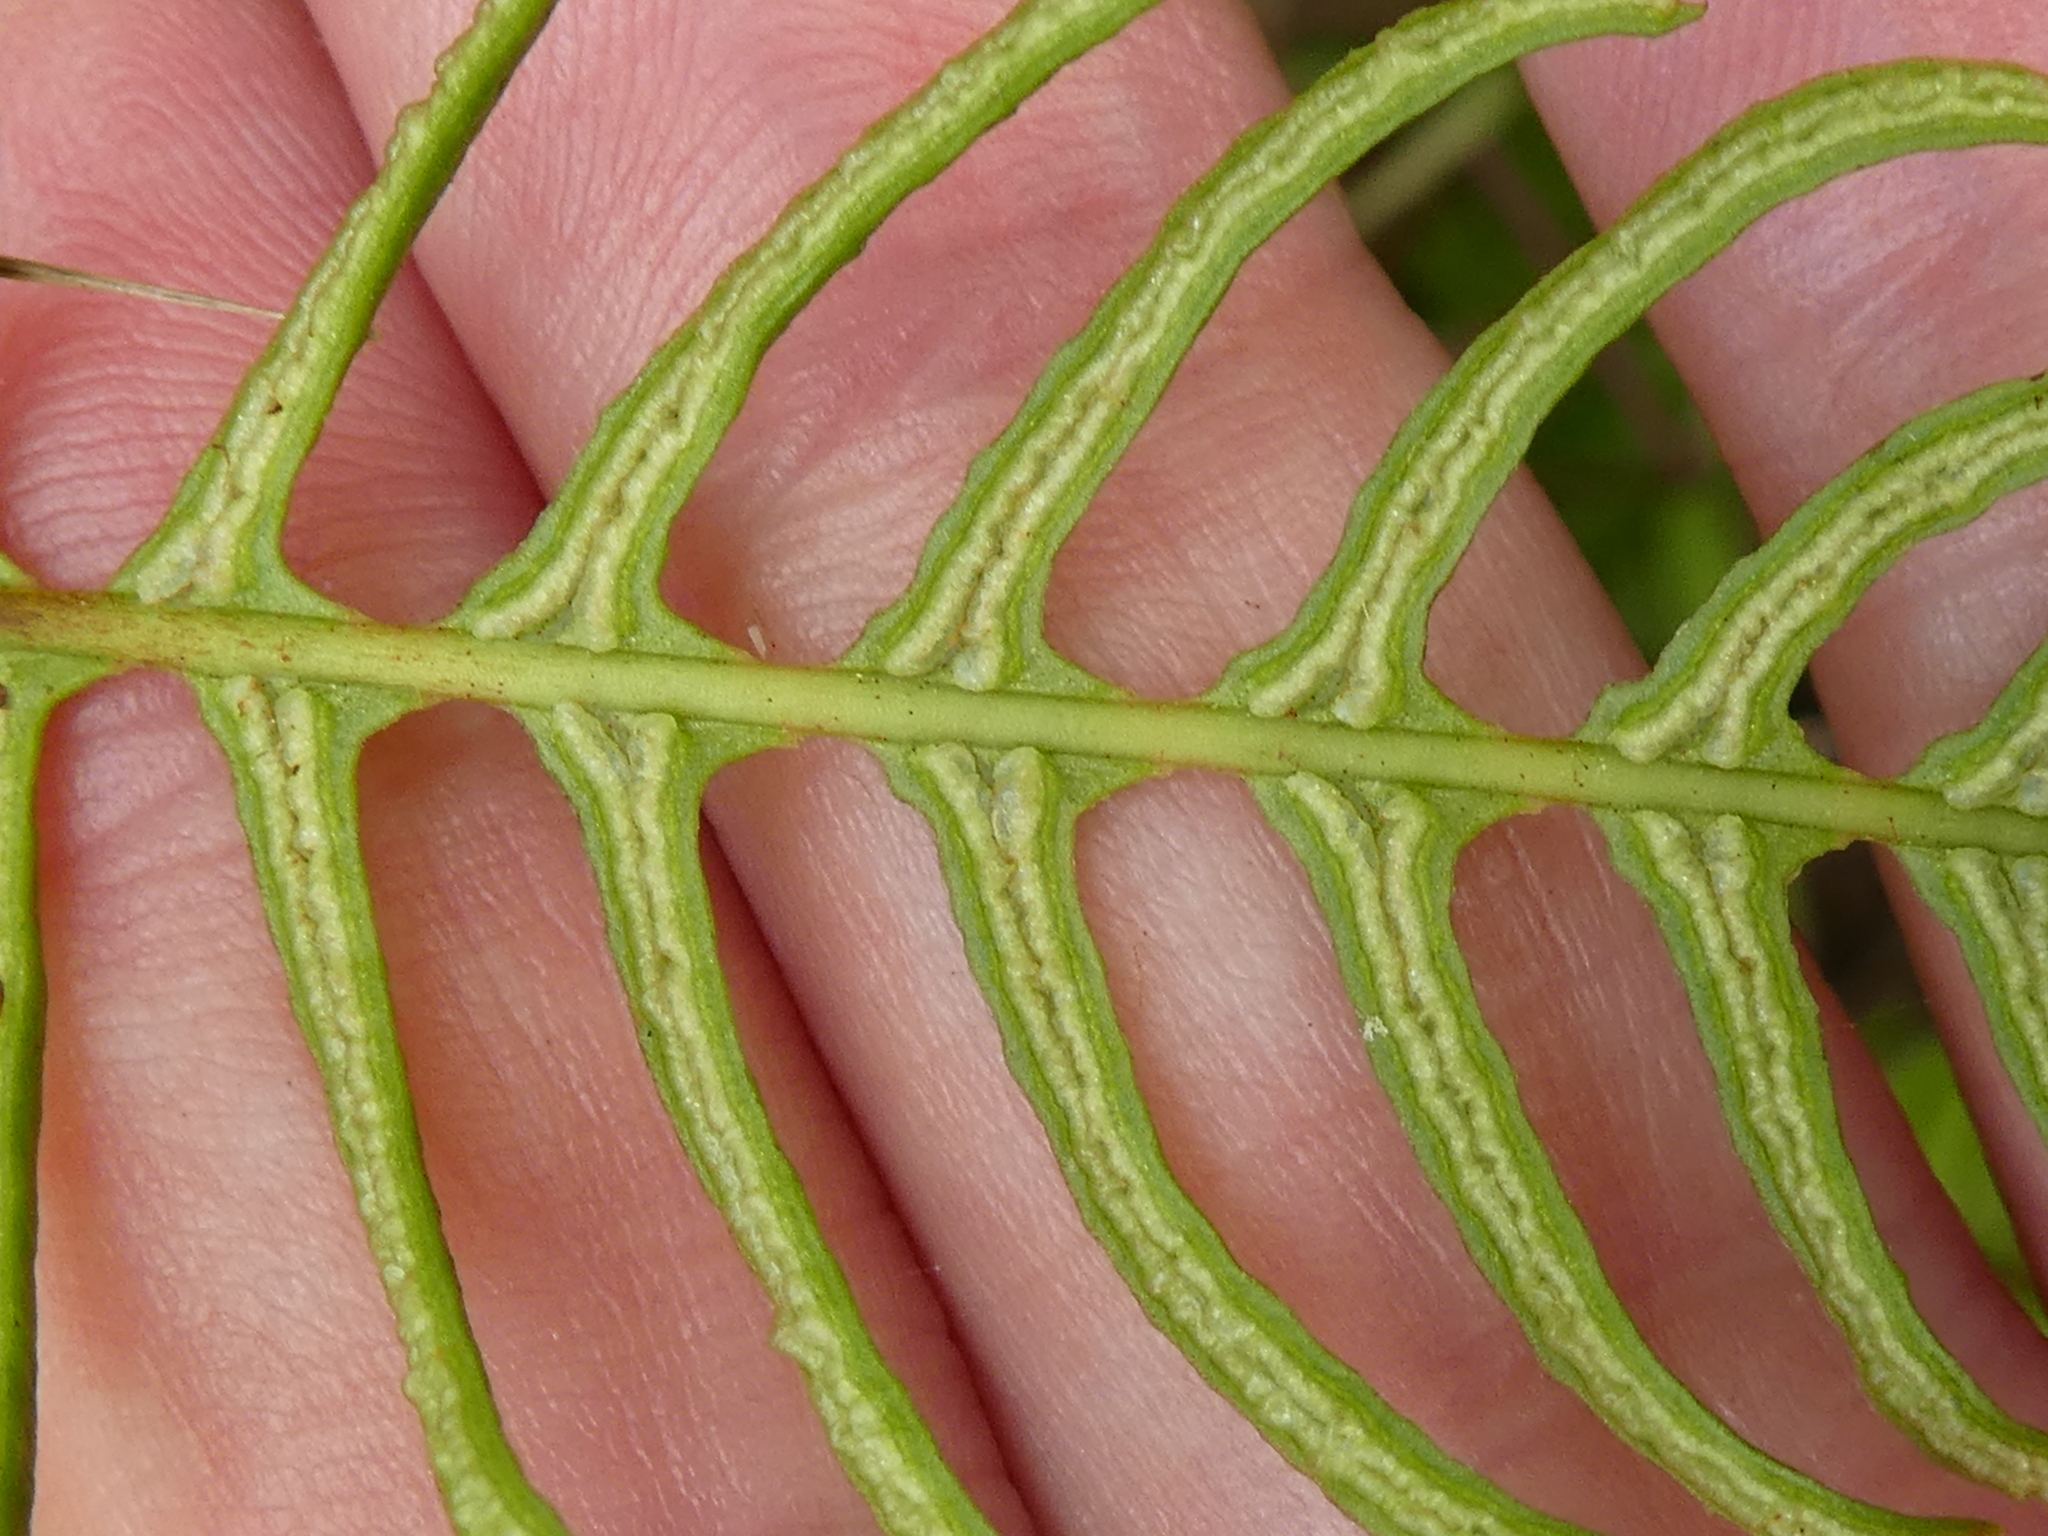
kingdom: Plantae
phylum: Tracheophyta
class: Polypodiopsida
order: Polypodiales
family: Blechnaceae
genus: Struthiopteris
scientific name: Struthiopteris spicant
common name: Deer fern
